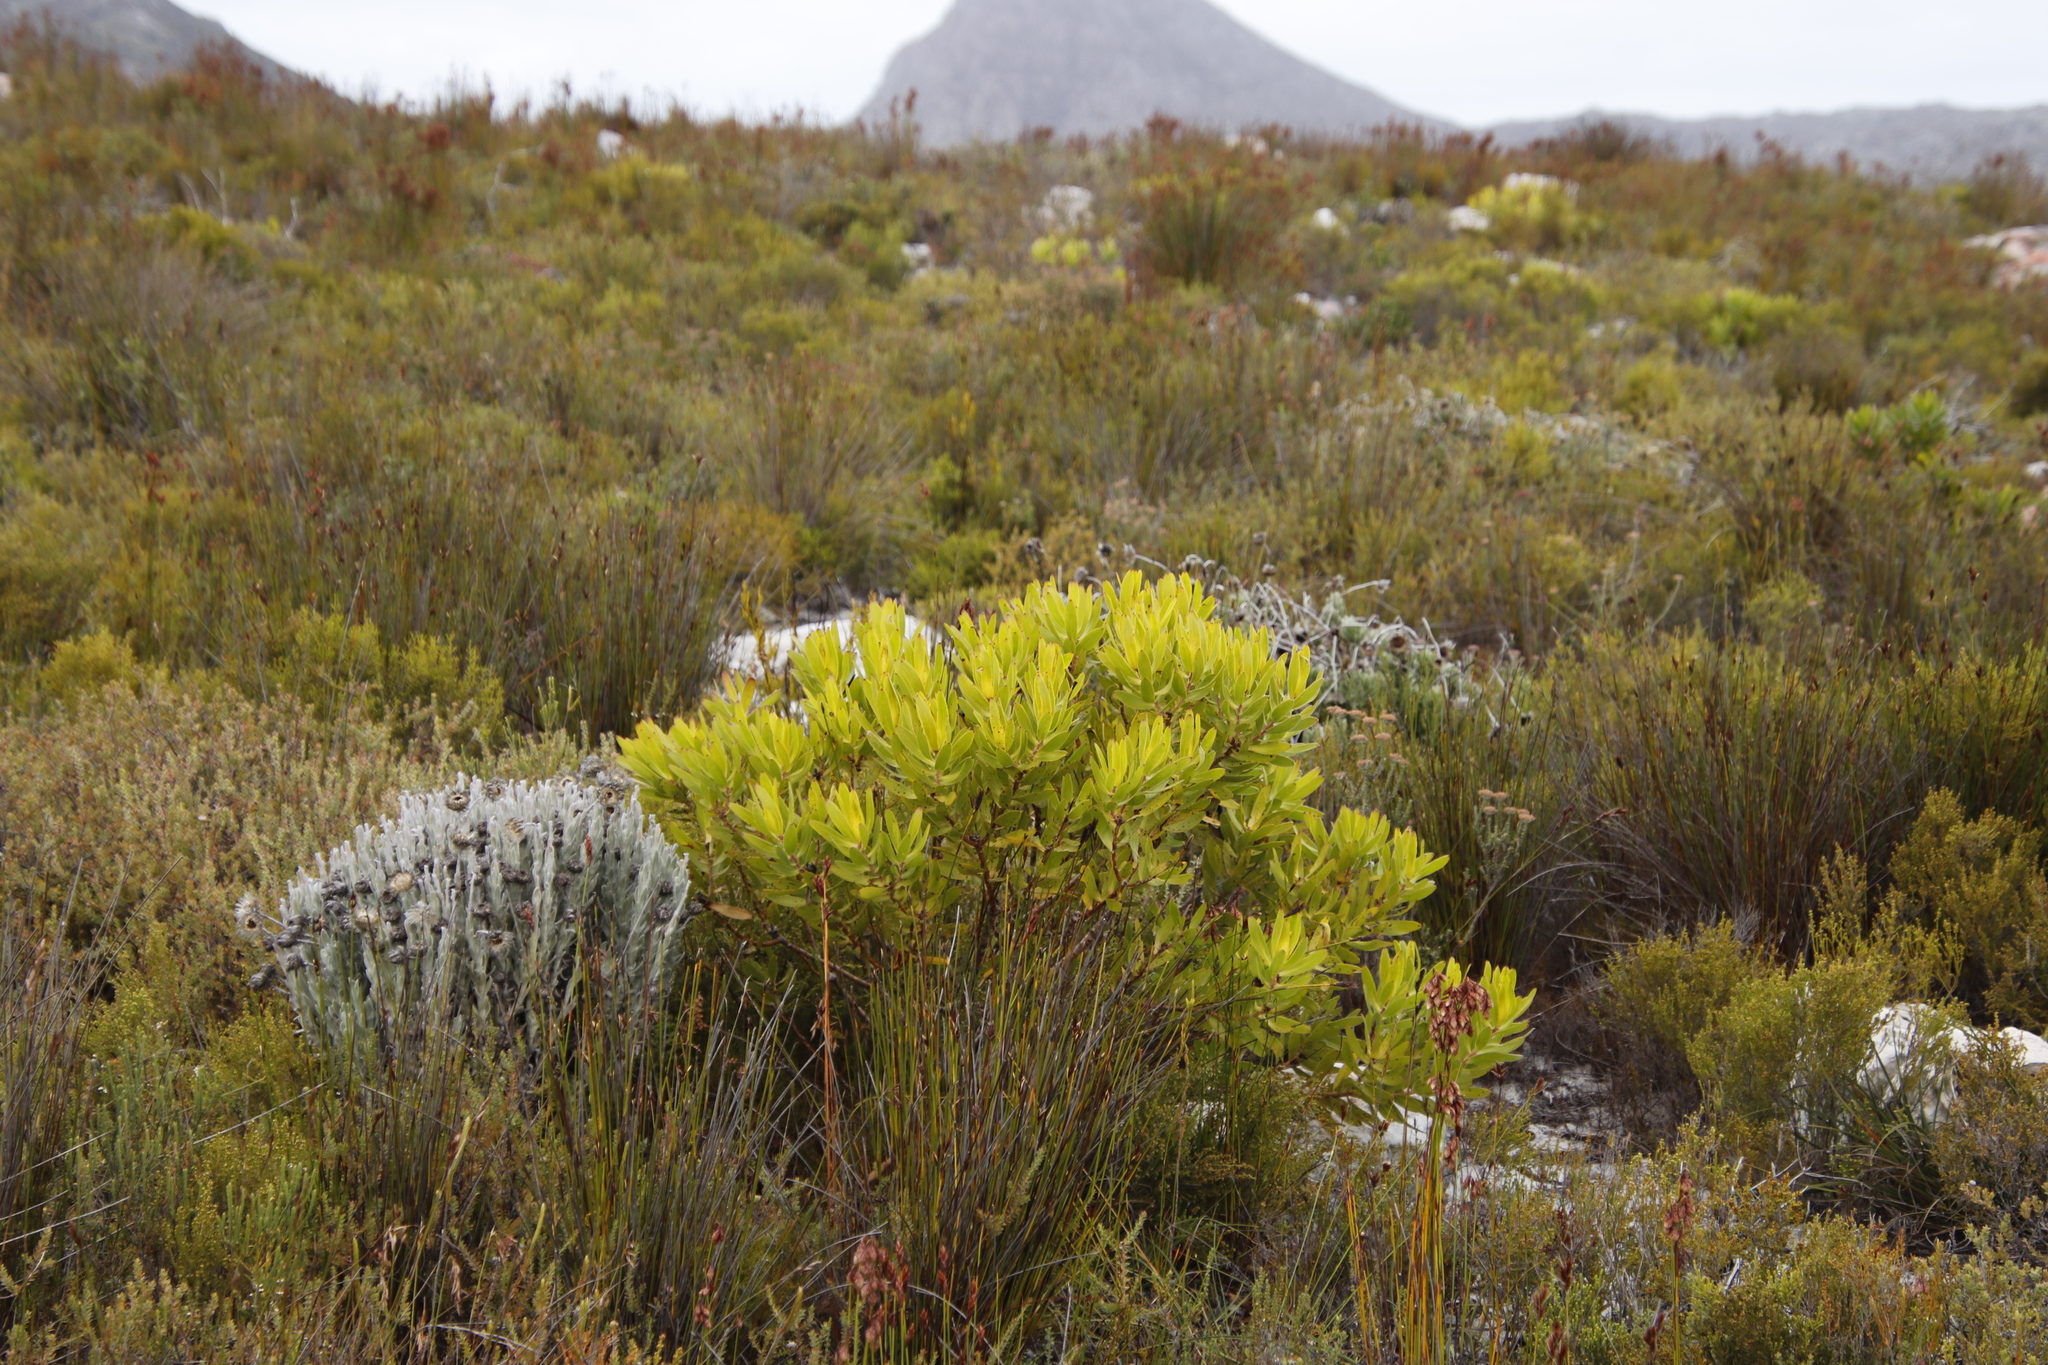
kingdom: Plantae
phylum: Tracheophyta
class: Magnoliopsida
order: Proteales
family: Proteaceae
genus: Leucadendron
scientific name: Leucadendron laureolum
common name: Golden sunshinebush
